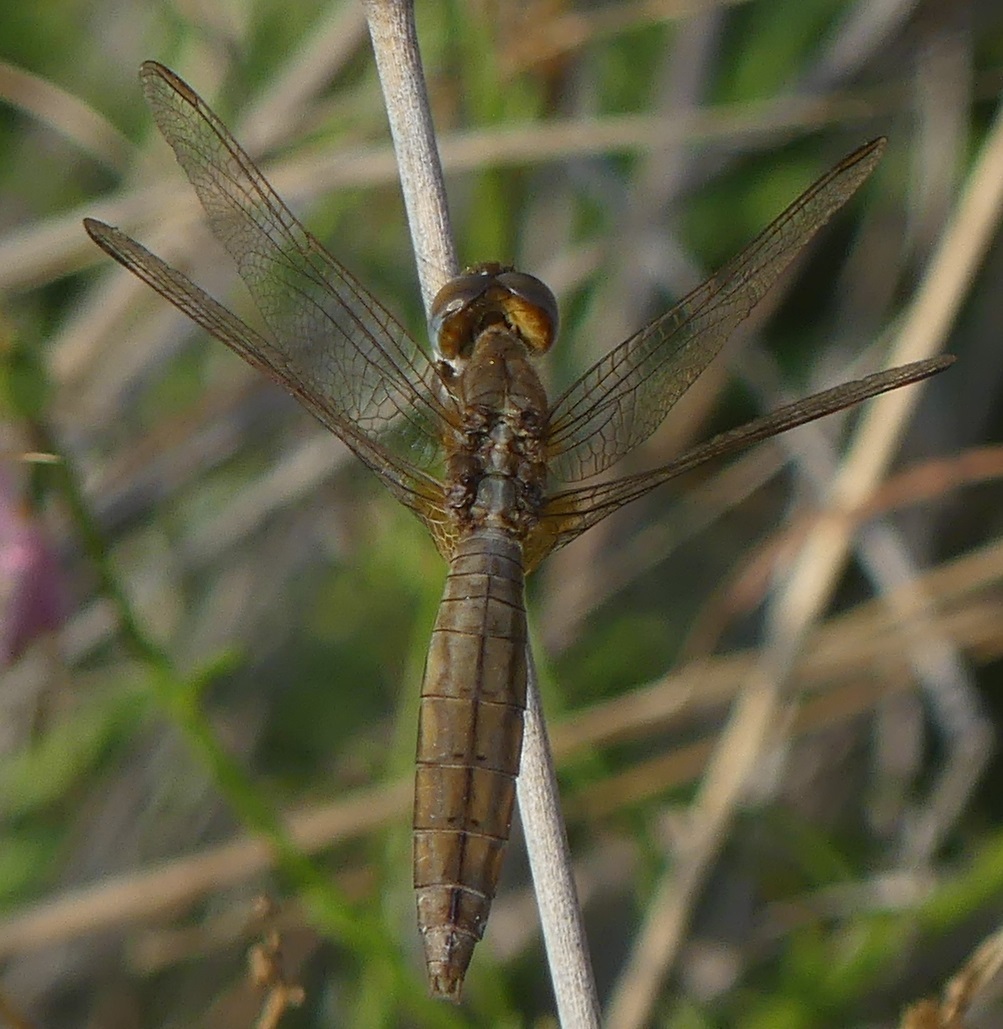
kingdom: Animalia
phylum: Arthropoda
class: Insecta
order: Odonata
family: Libellulidae
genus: Crocothemis
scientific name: Crocothemis erythraea
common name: Scarlet dragonfly
